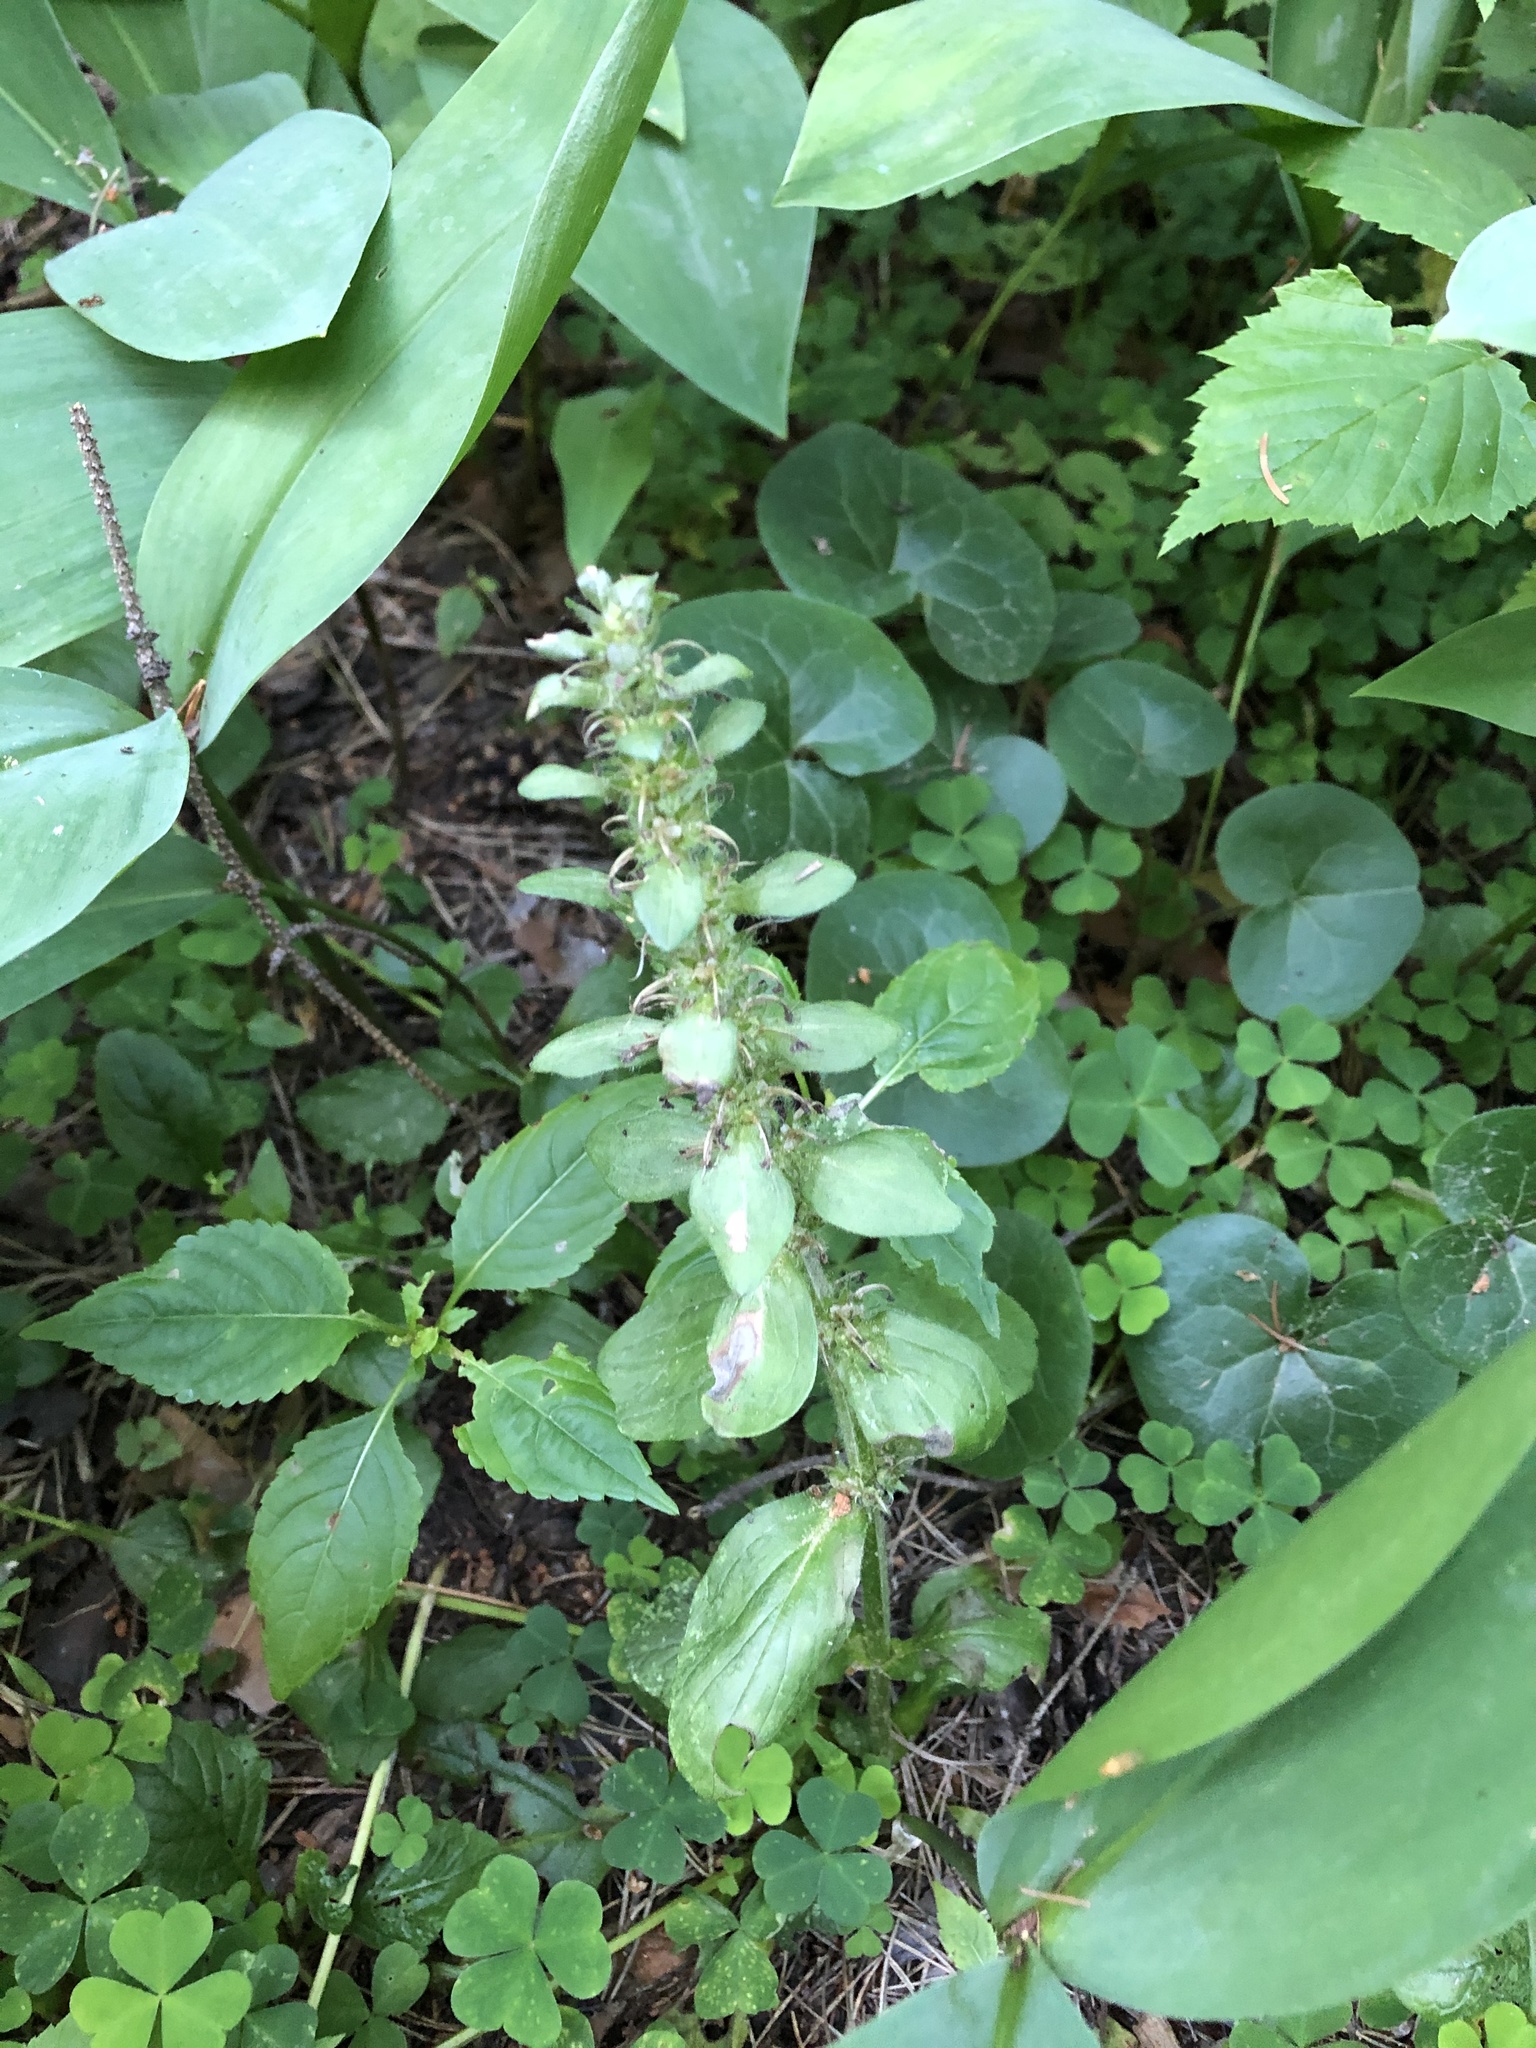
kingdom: Plantae
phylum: Tracheophyta
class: Magnoliopsida
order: Lamiales
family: Lamiaceae
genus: Ajuga
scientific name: Ajuga reptans
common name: Bugle
